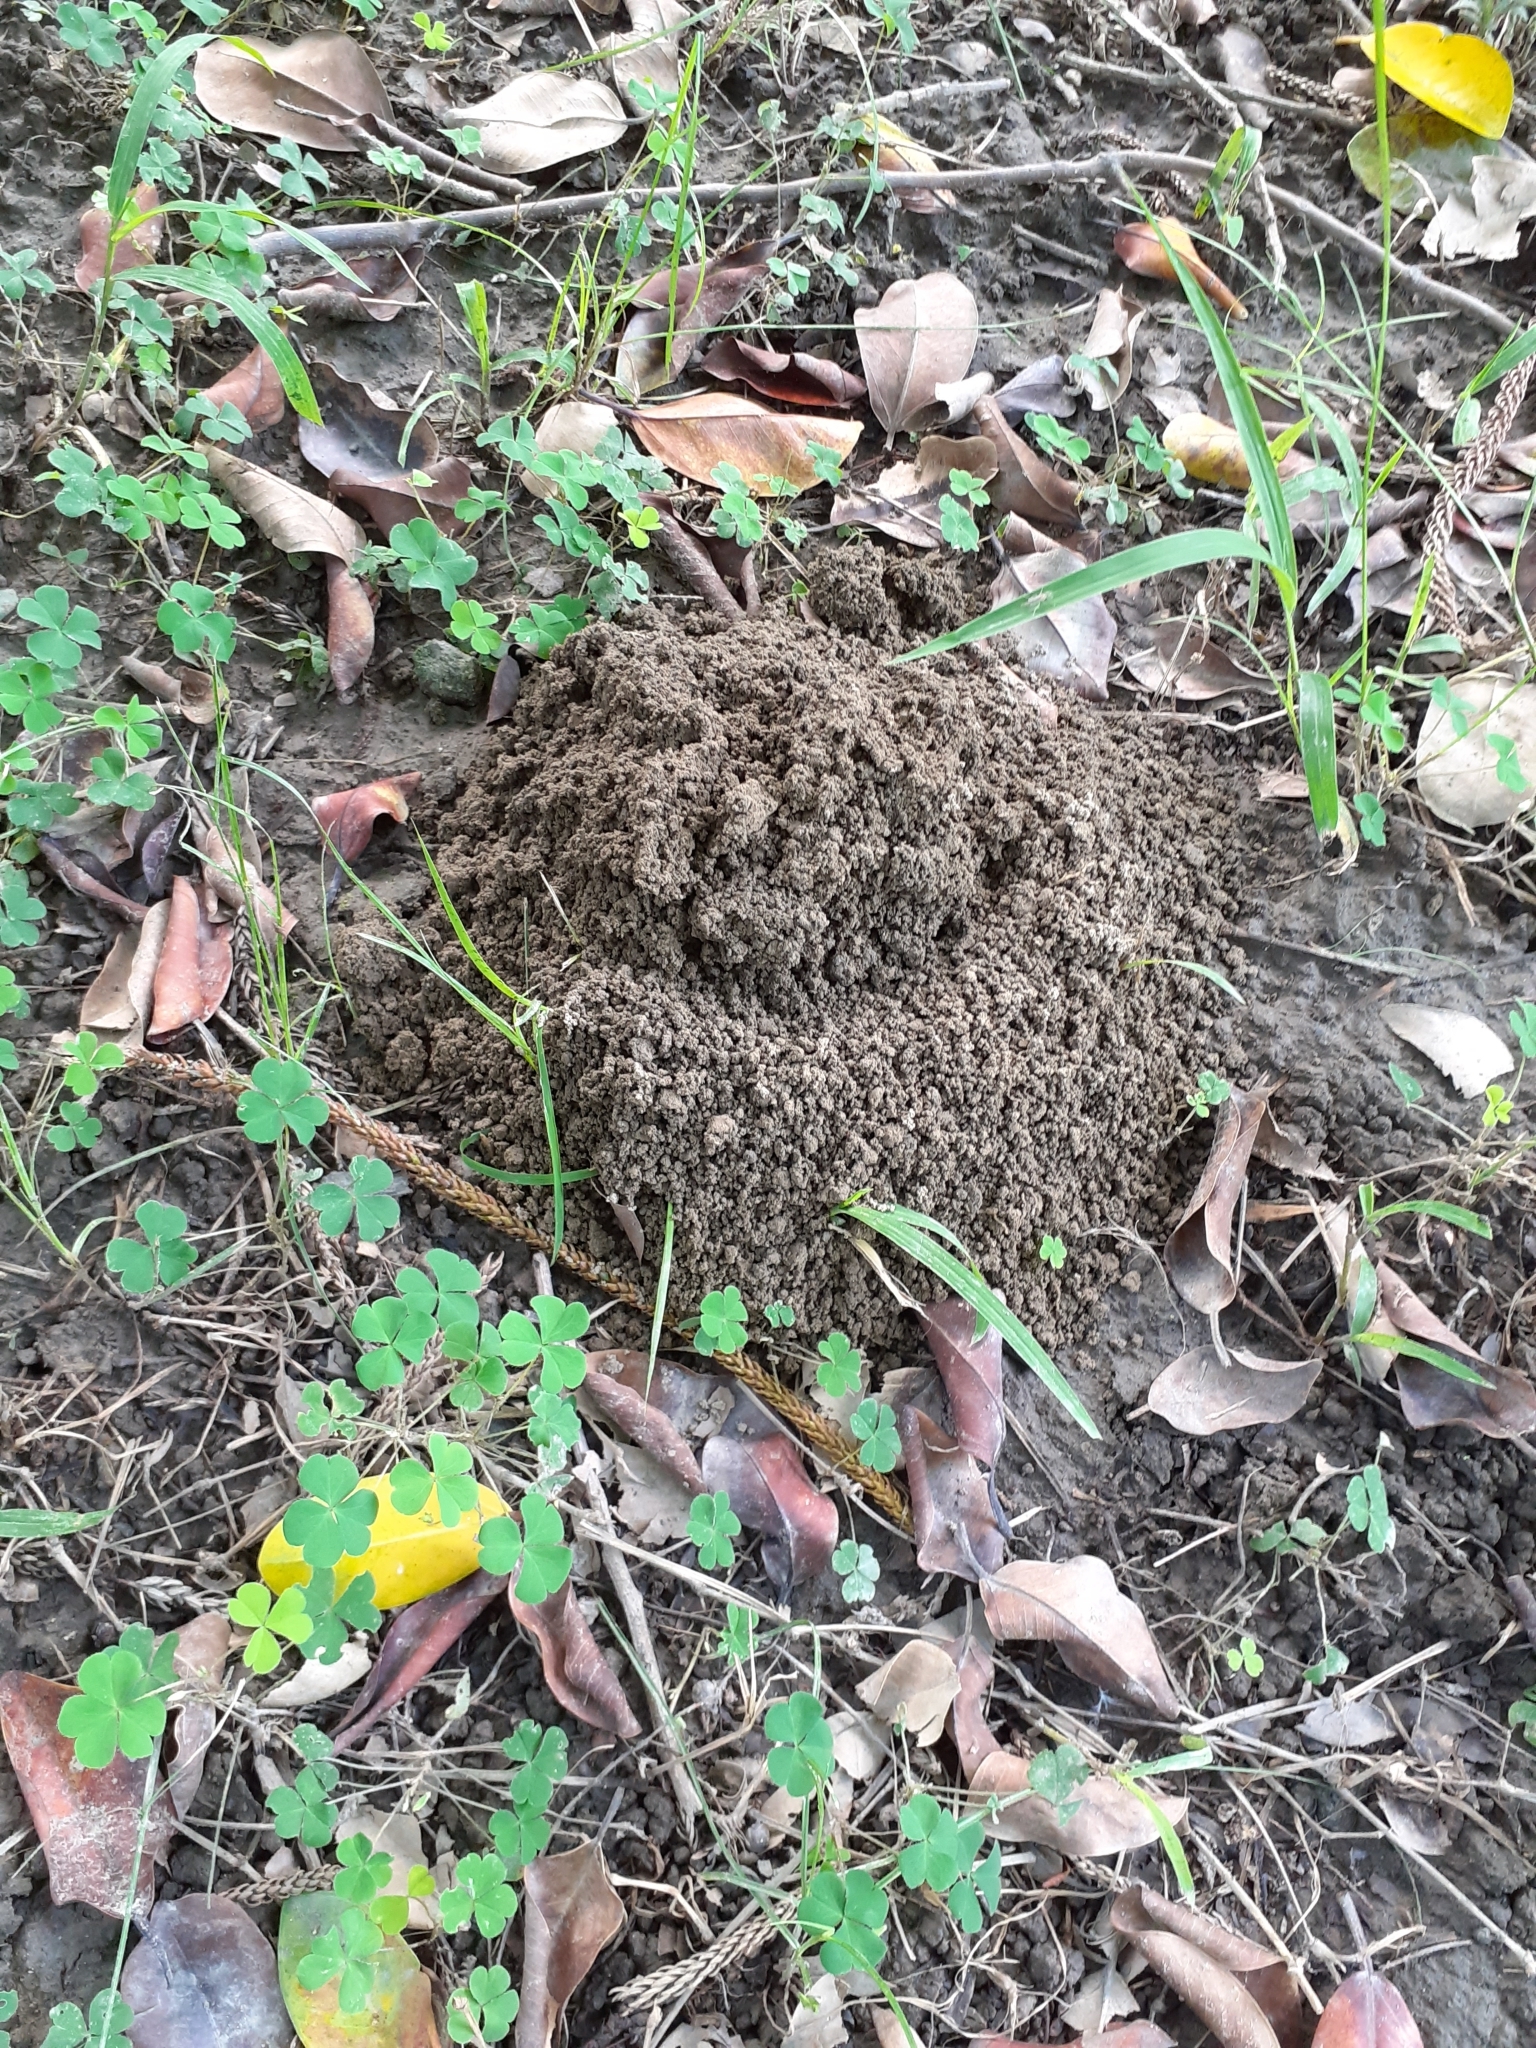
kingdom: Animalia
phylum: Arthropoda
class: Insecta
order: Orthoptera
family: Gryllidae
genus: Tarbinskiellus
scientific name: Tarbinskiellus portentosus
